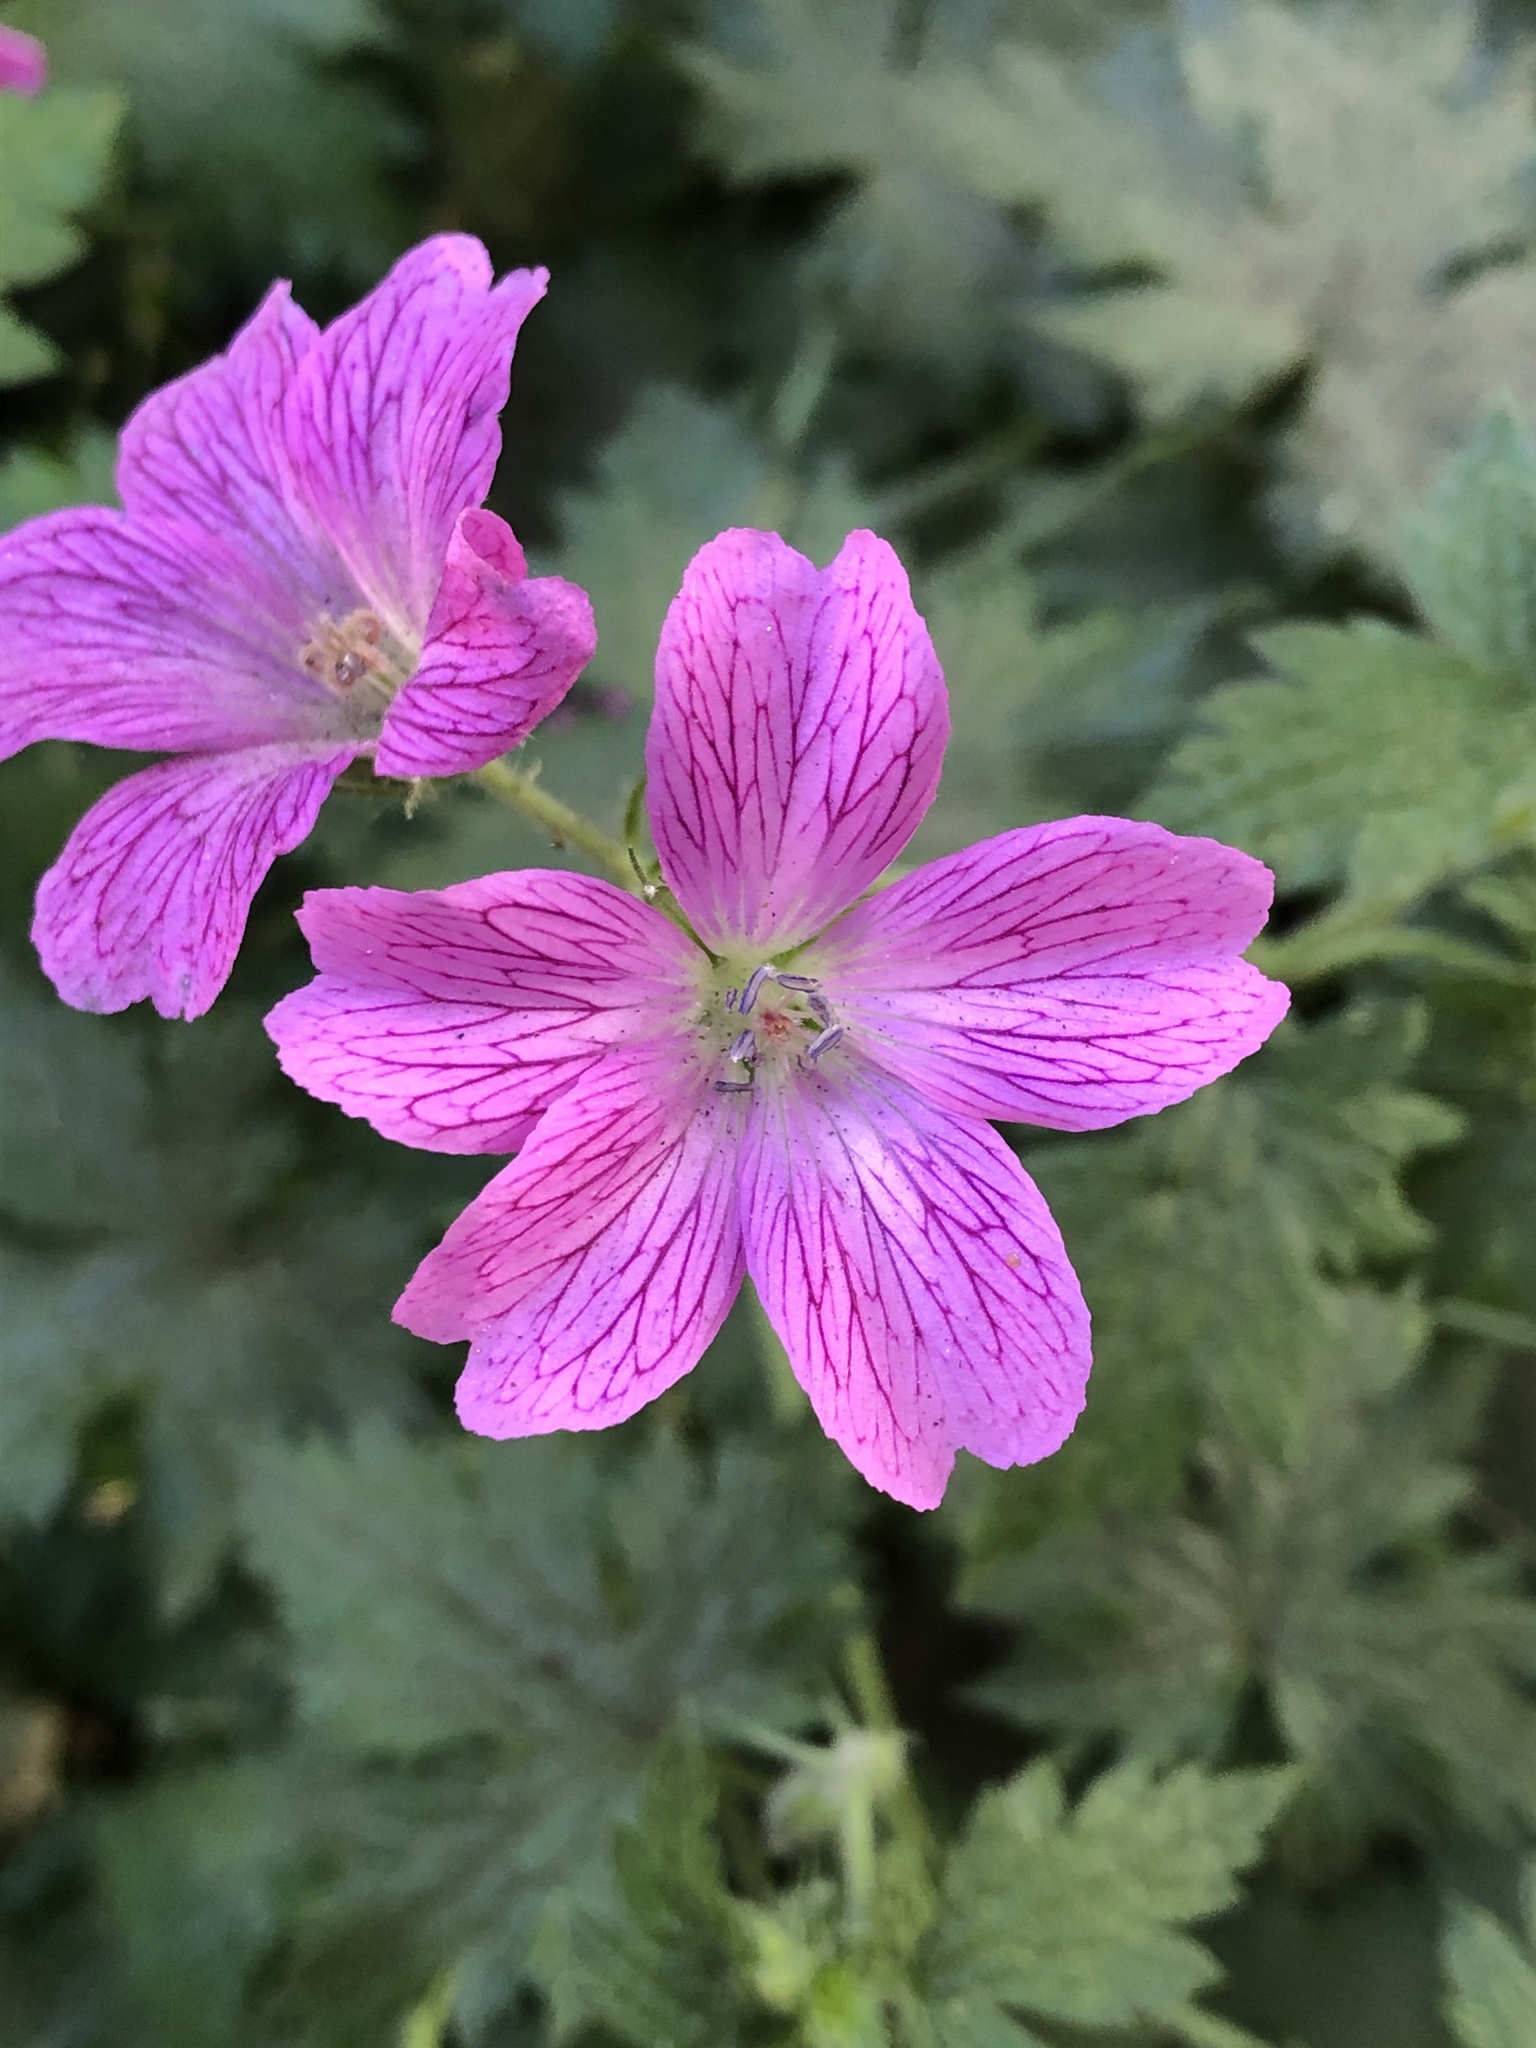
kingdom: Plantae
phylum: Tracheophyta
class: Magnoliopsida
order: Geraniales
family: Geraniaceae
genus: Geranium
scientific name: Geranium oxonianum
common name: Druce's crane's-bill
